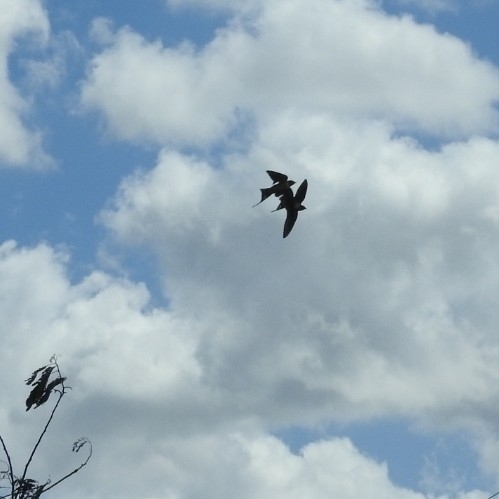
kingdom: Animalia
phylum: Chordata
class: Aves
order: Passeriformes
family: Hirundinidae
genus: Hirundo
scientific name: Hirundo rustica
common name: Barn swallow
